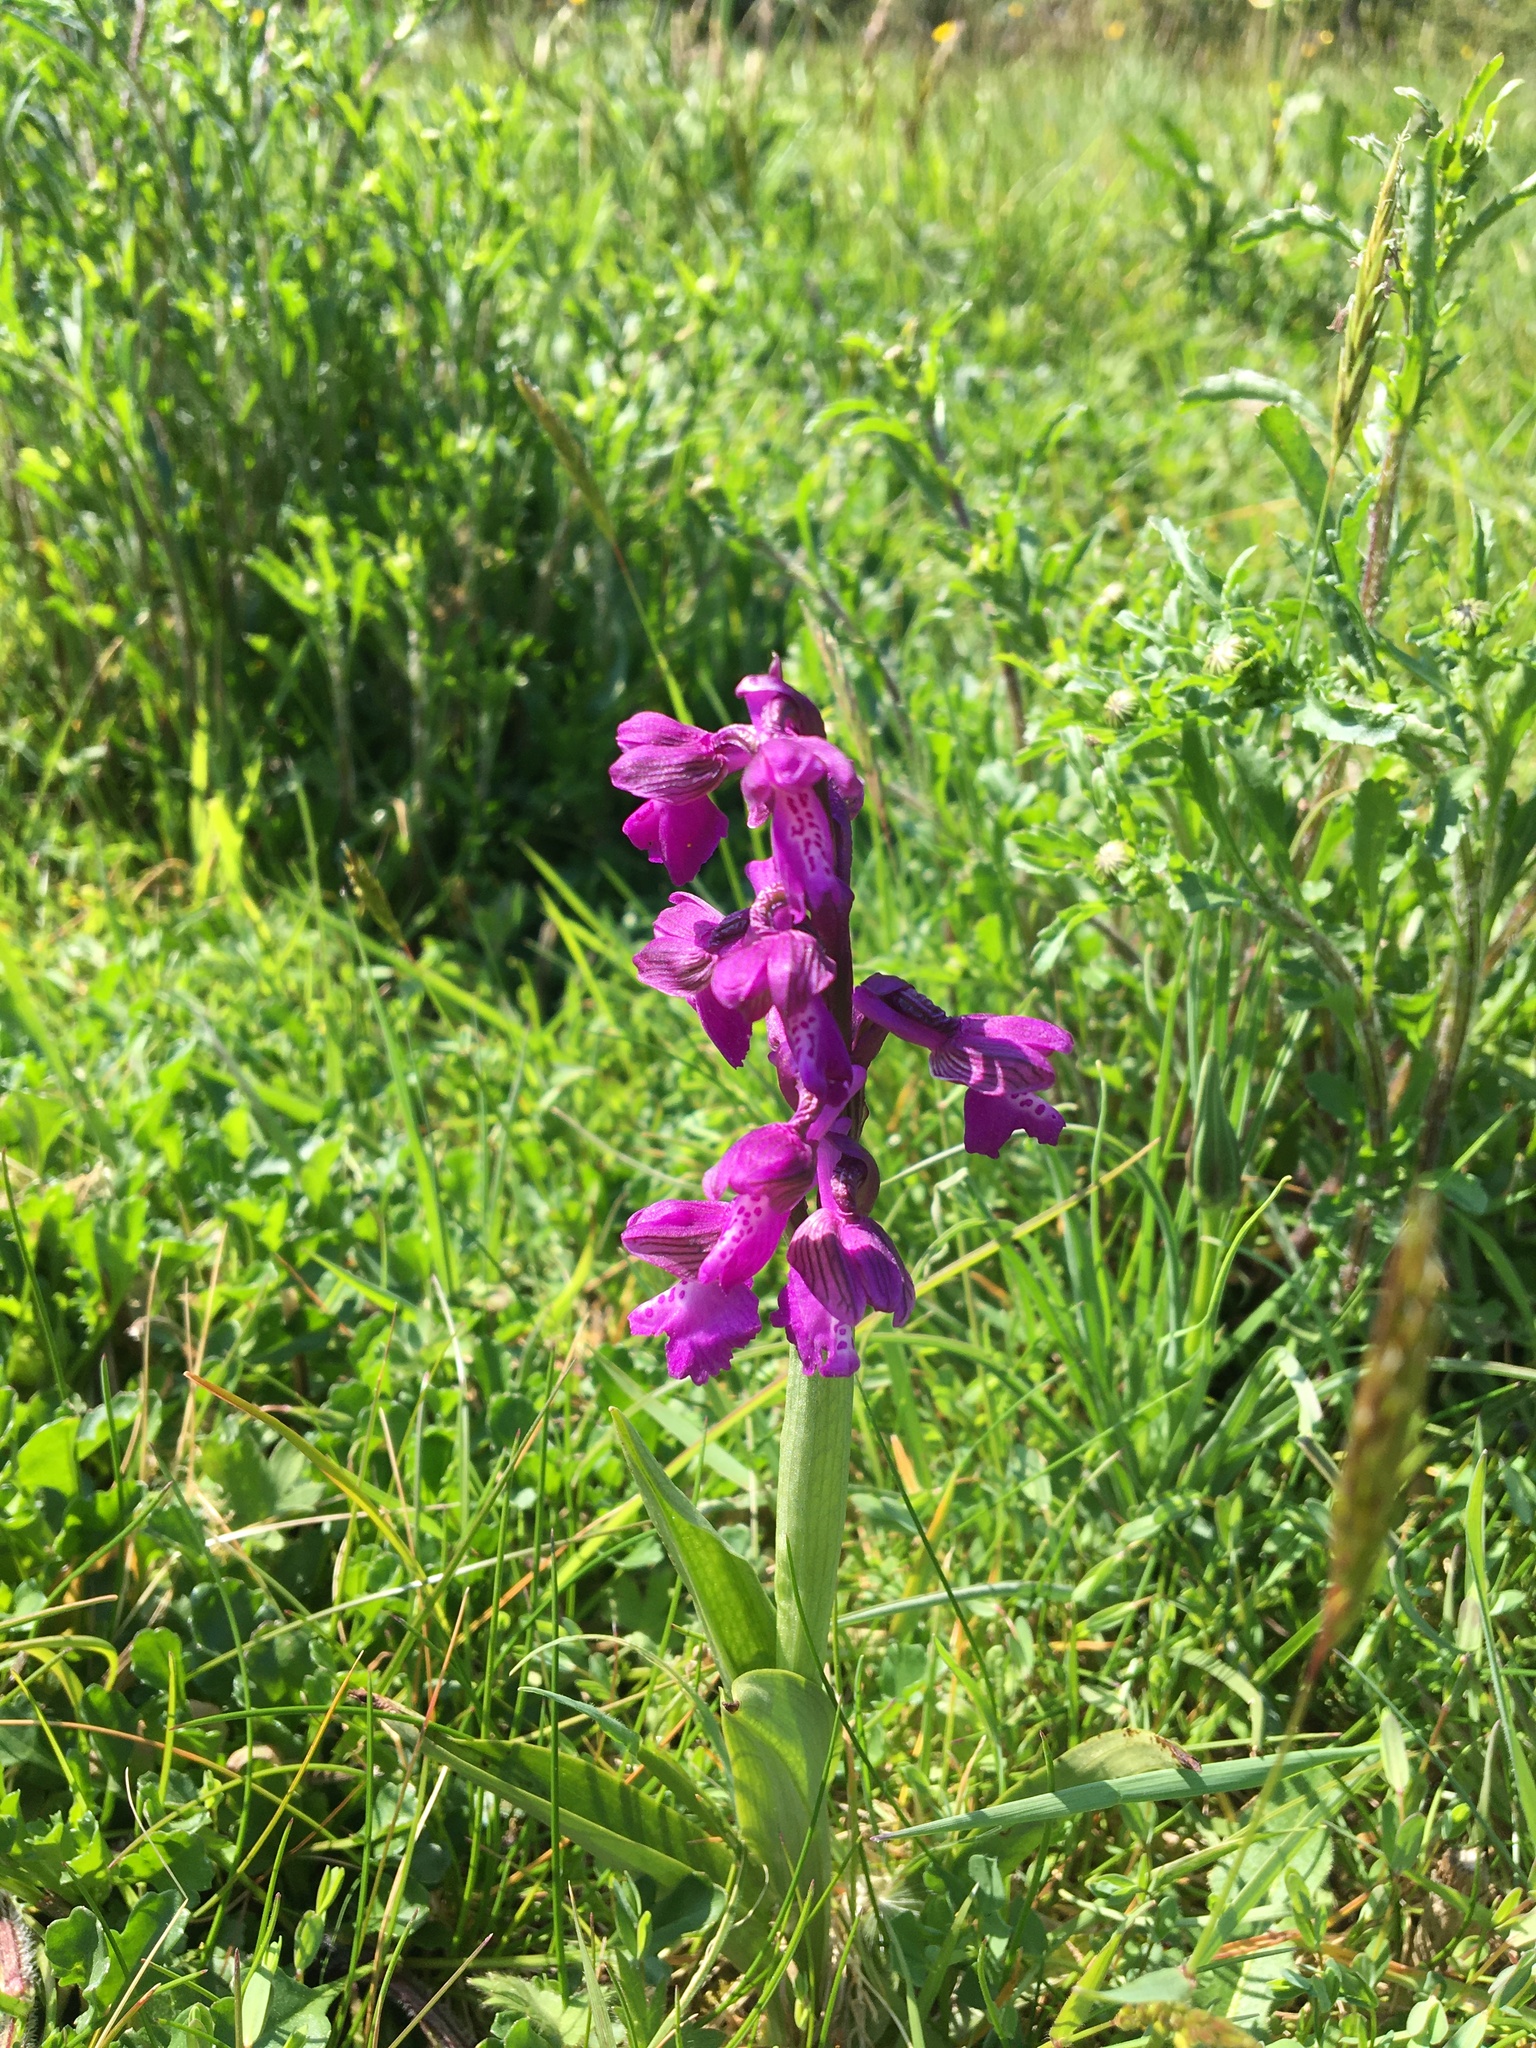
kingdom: Plantae
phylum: Tracheophyta
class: Liliopsida
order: Asparagales
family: Orchidaceae
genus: Anacamptis
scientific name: Anacamptis morio
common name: Green-winged orchid
